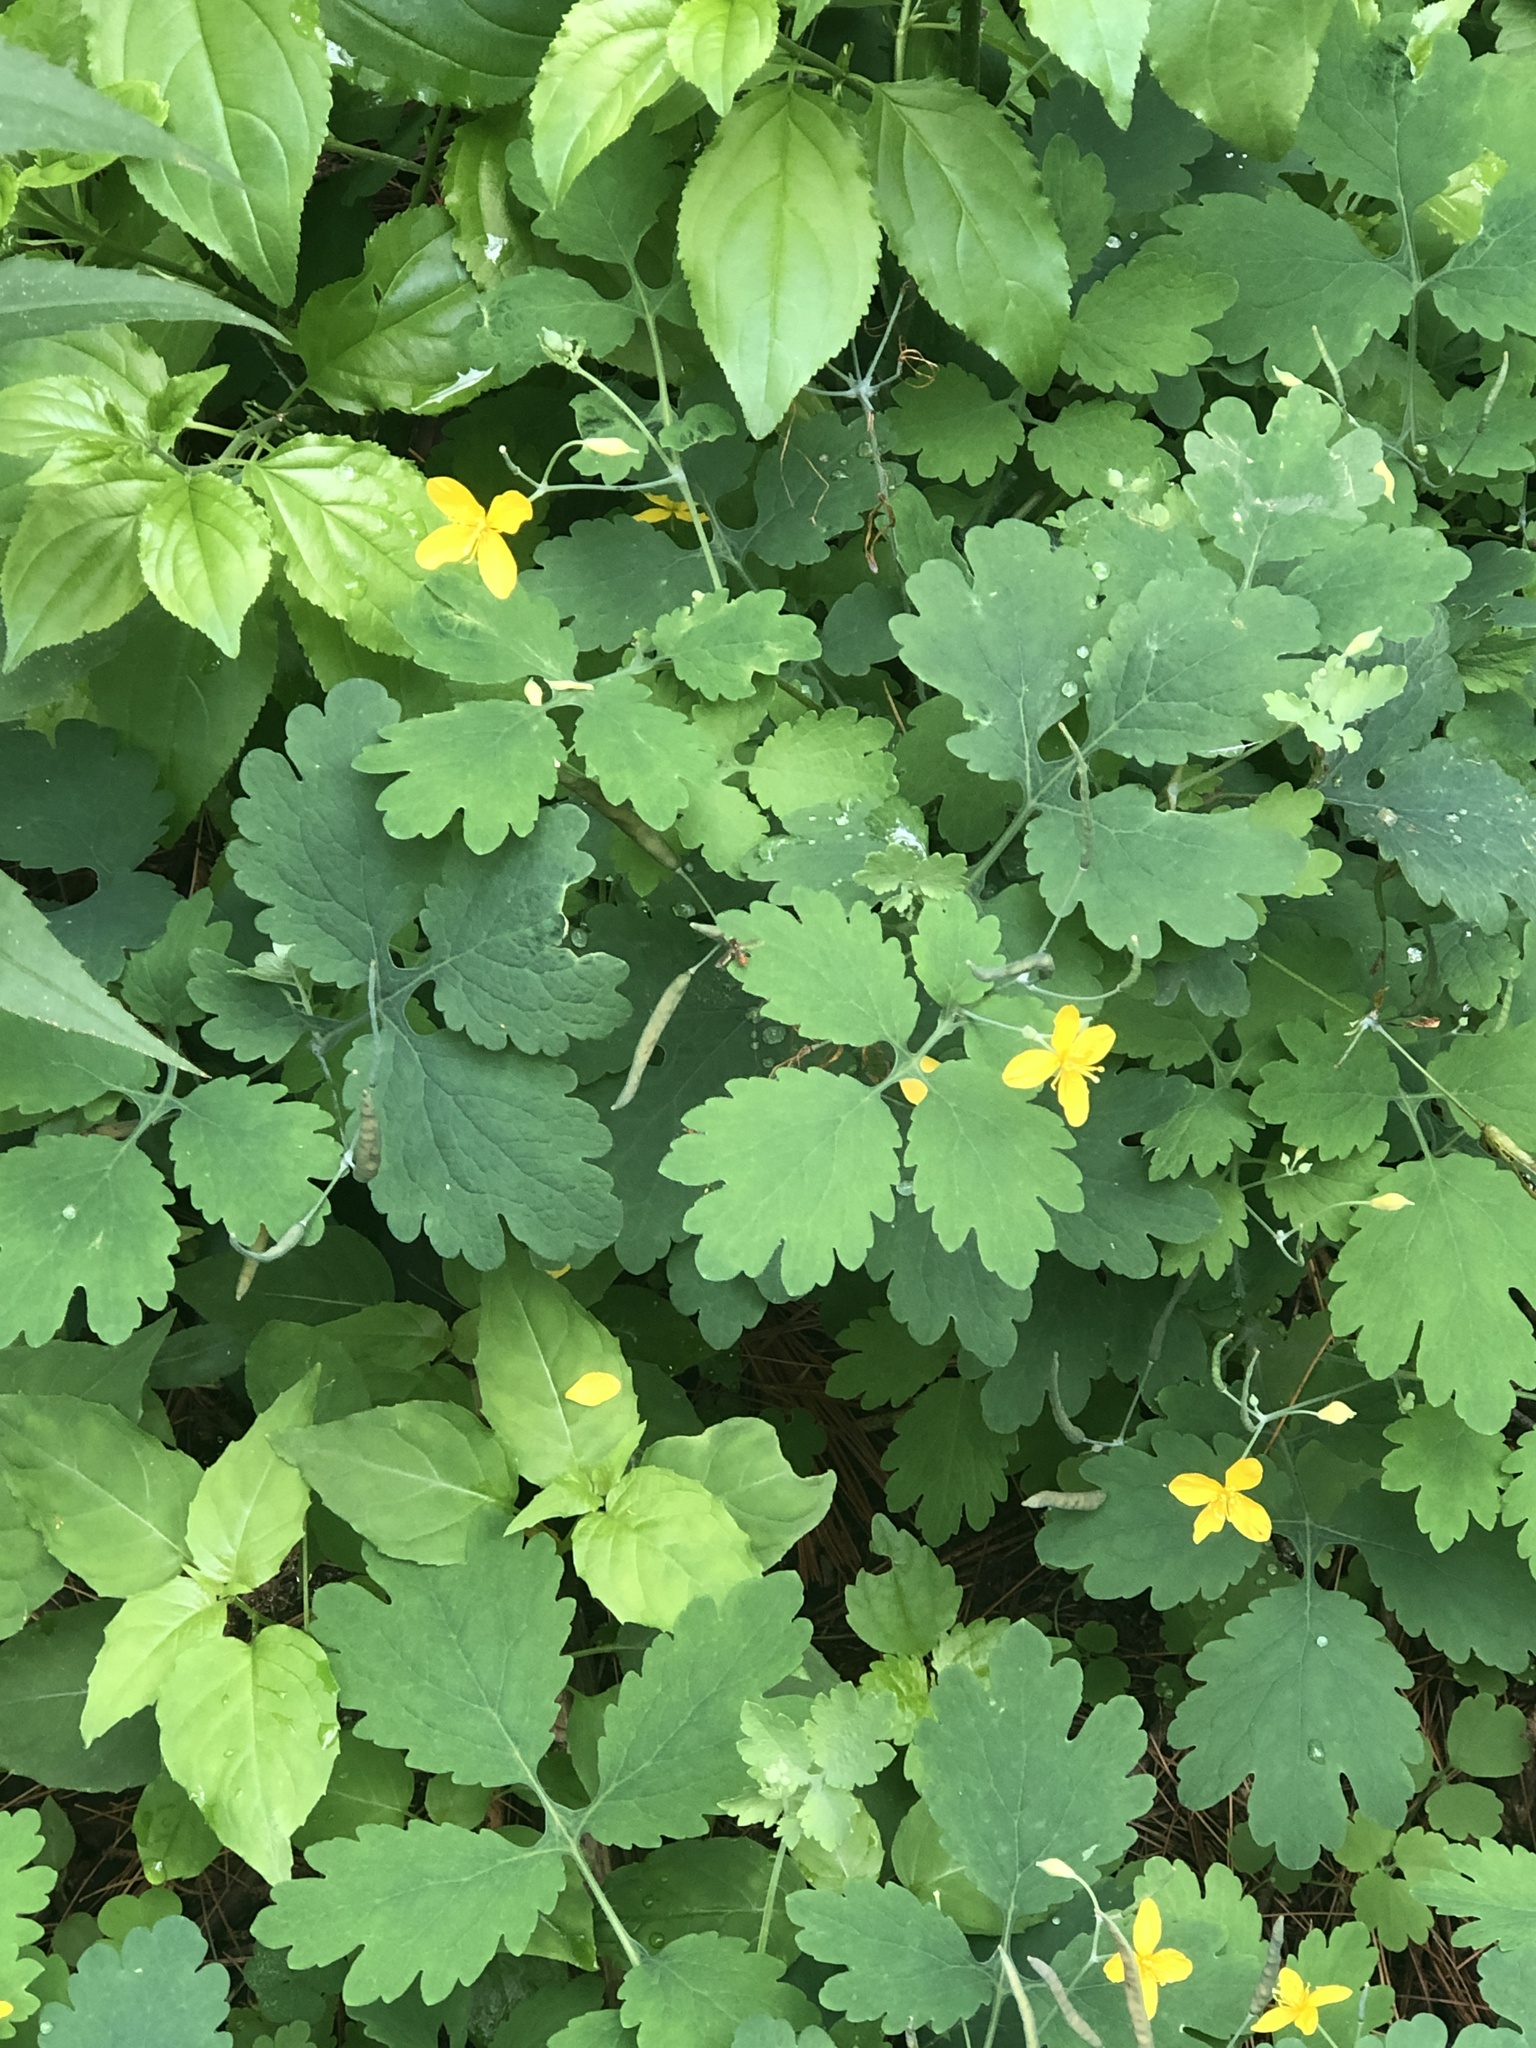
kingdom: Plantae
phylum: Tracheophyta
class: Magnoliopsida
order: Ranunculales
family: Papaveraceae
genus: Chelidonium
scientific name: Chelidonium majus
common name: Greater celandine
